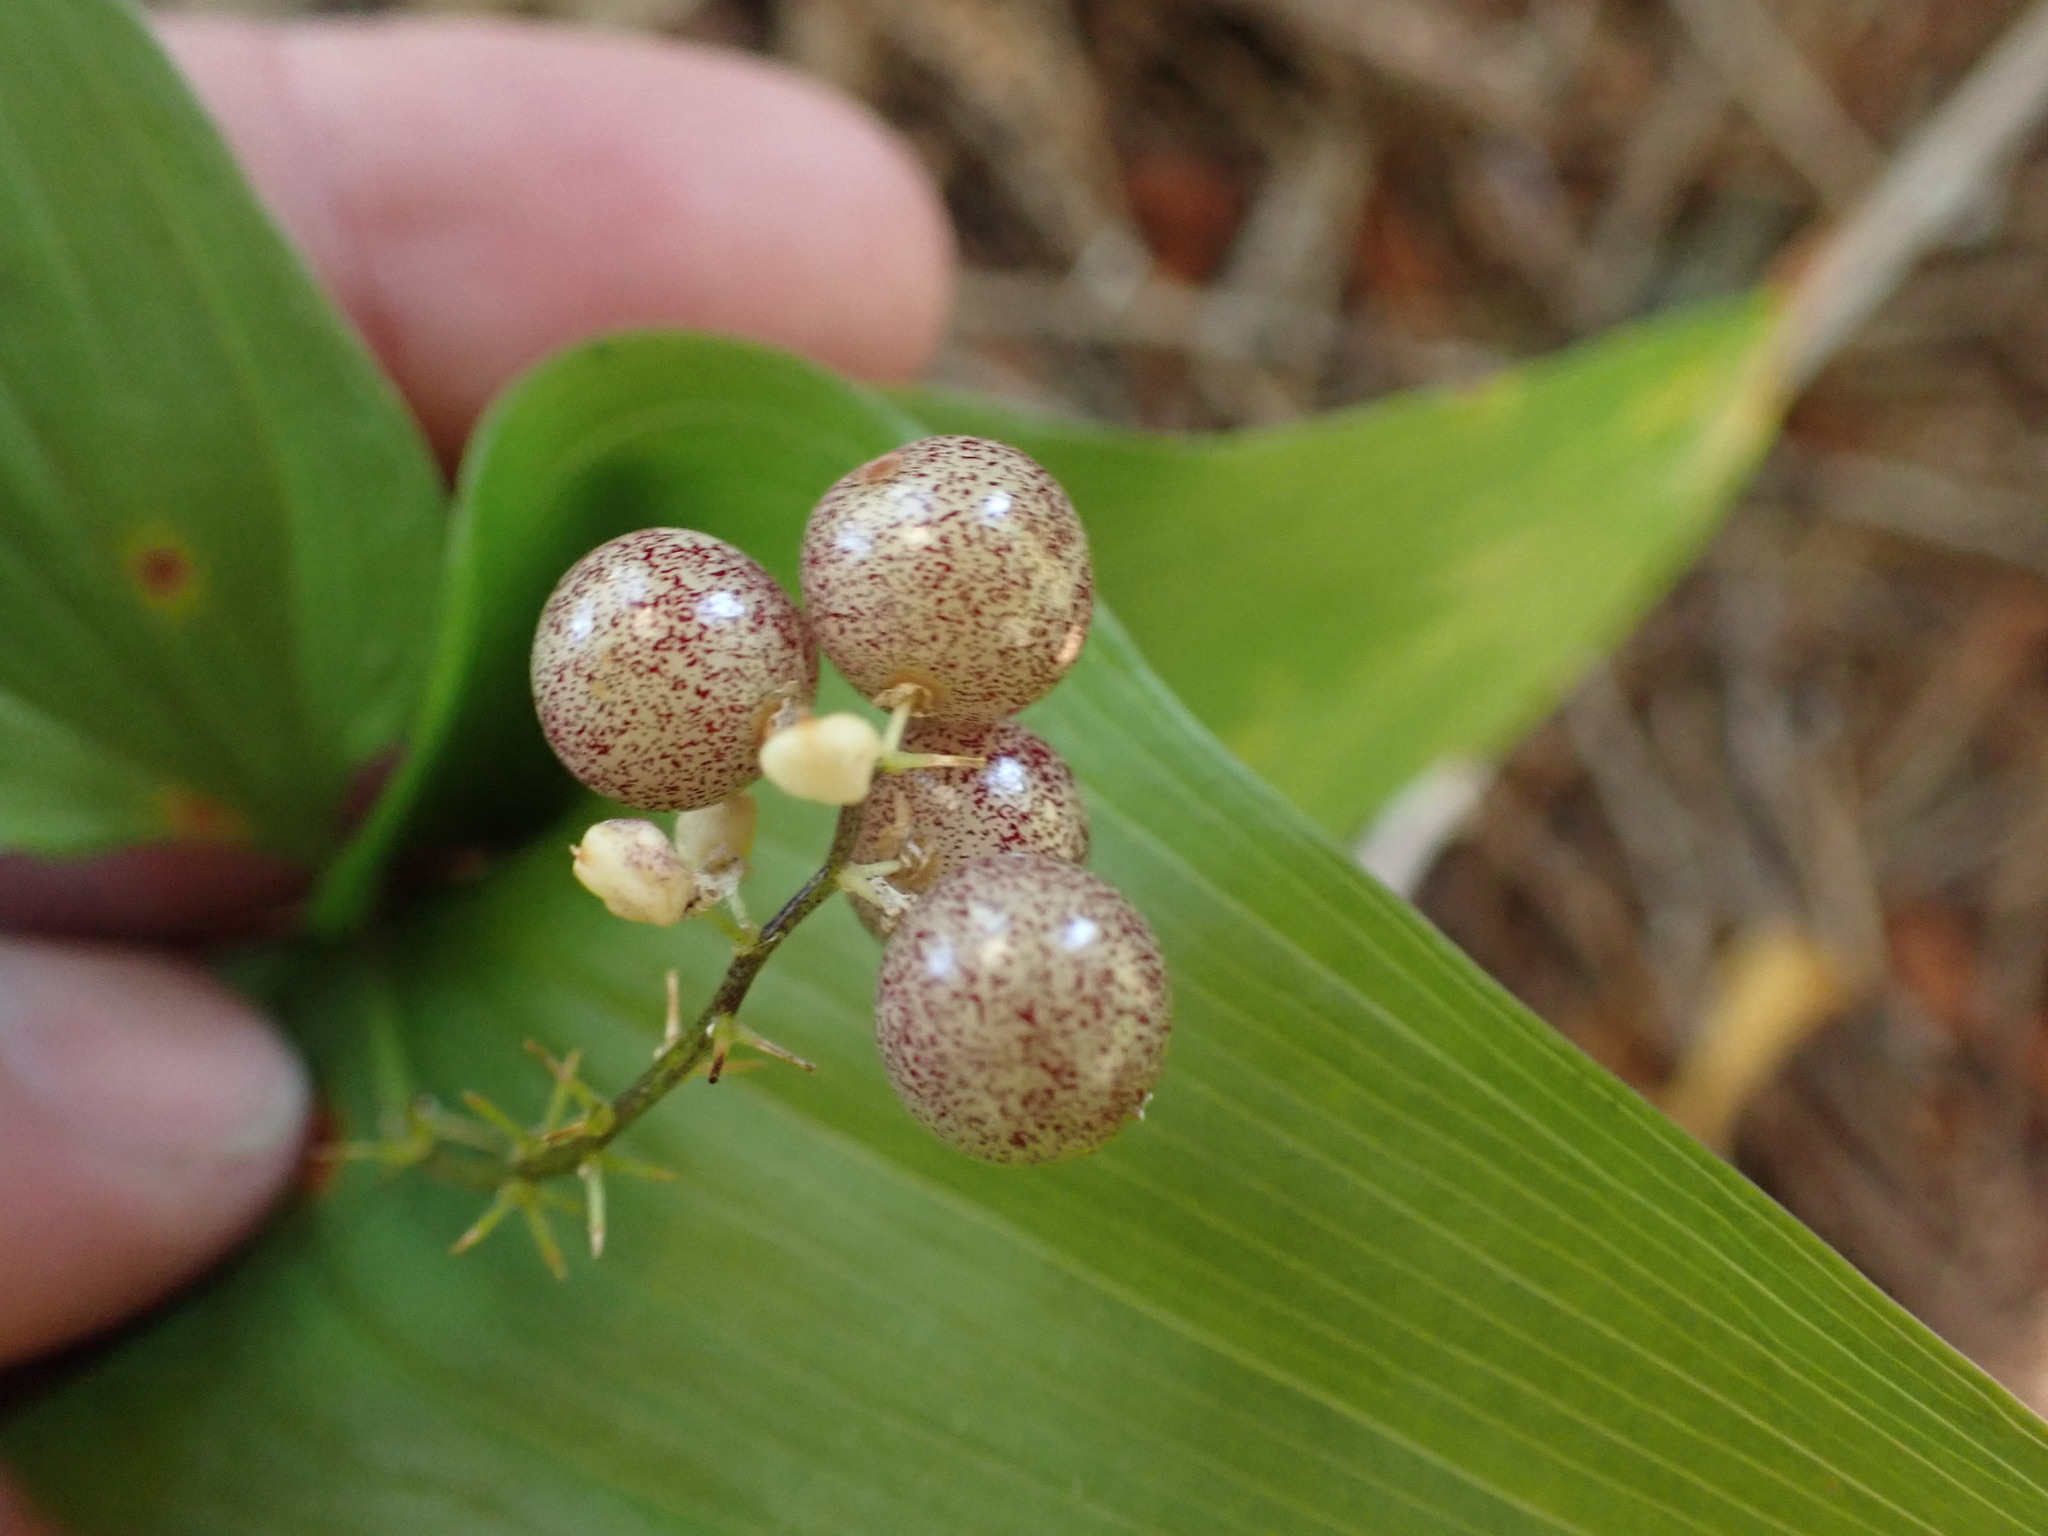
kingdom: Plantae
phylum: Tracheophyta
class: Liliopsida
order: Asparagales
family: Asparagaceae
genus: Maianthemum
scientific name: Maianthemum dilatatum
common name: False lily-of-the-valley
